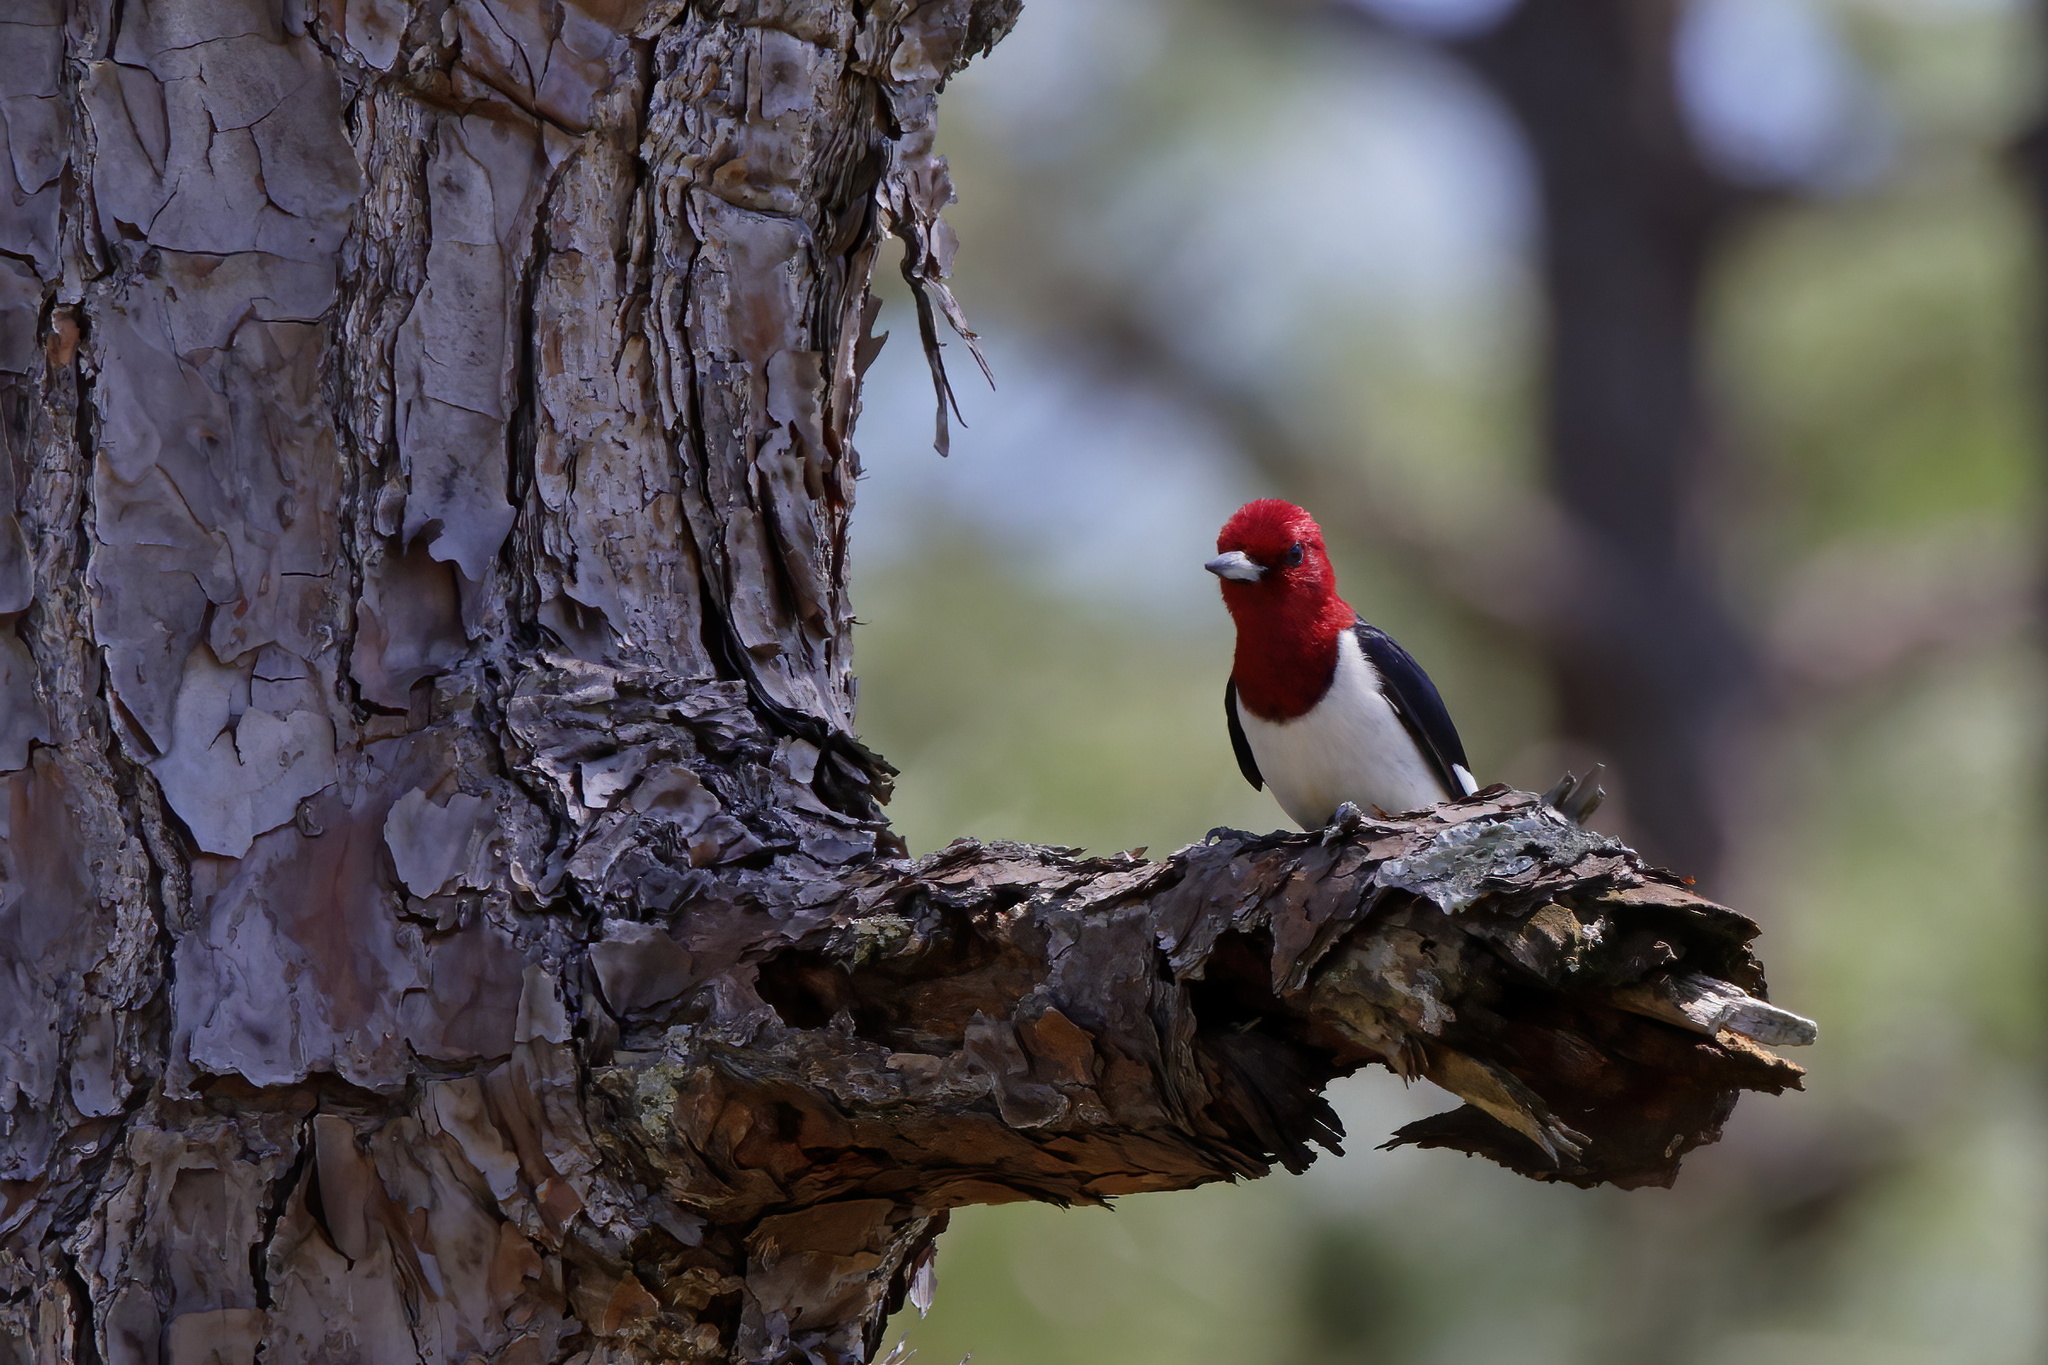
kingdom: Animalia
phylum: Chordata
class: Aves
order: Piciformes
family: Picidae
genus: Melanerpes
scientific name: Melanerpes erythrocephalus
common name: Red-headed woodpecker
